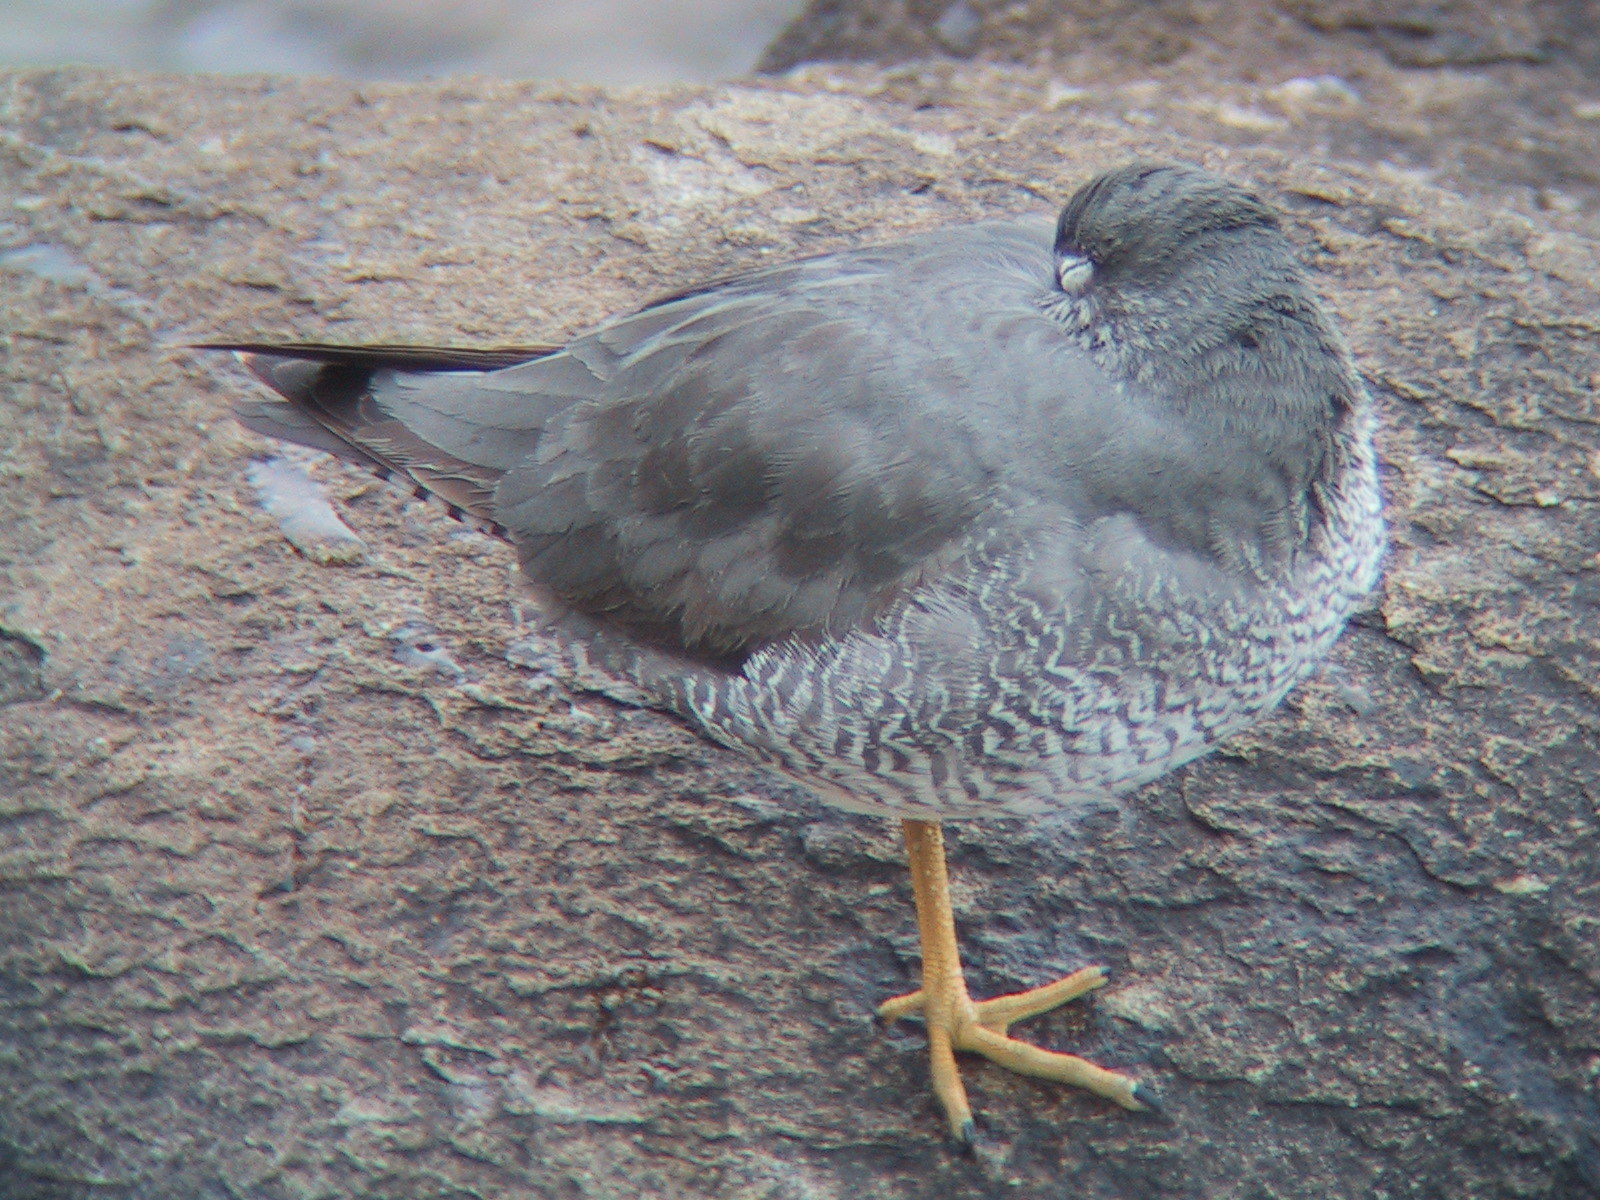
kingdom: Animalia
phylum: Chordata
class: Aves
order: Charadriiformes
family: Scolopacidae
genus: Tringa
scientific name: Tringa incana
